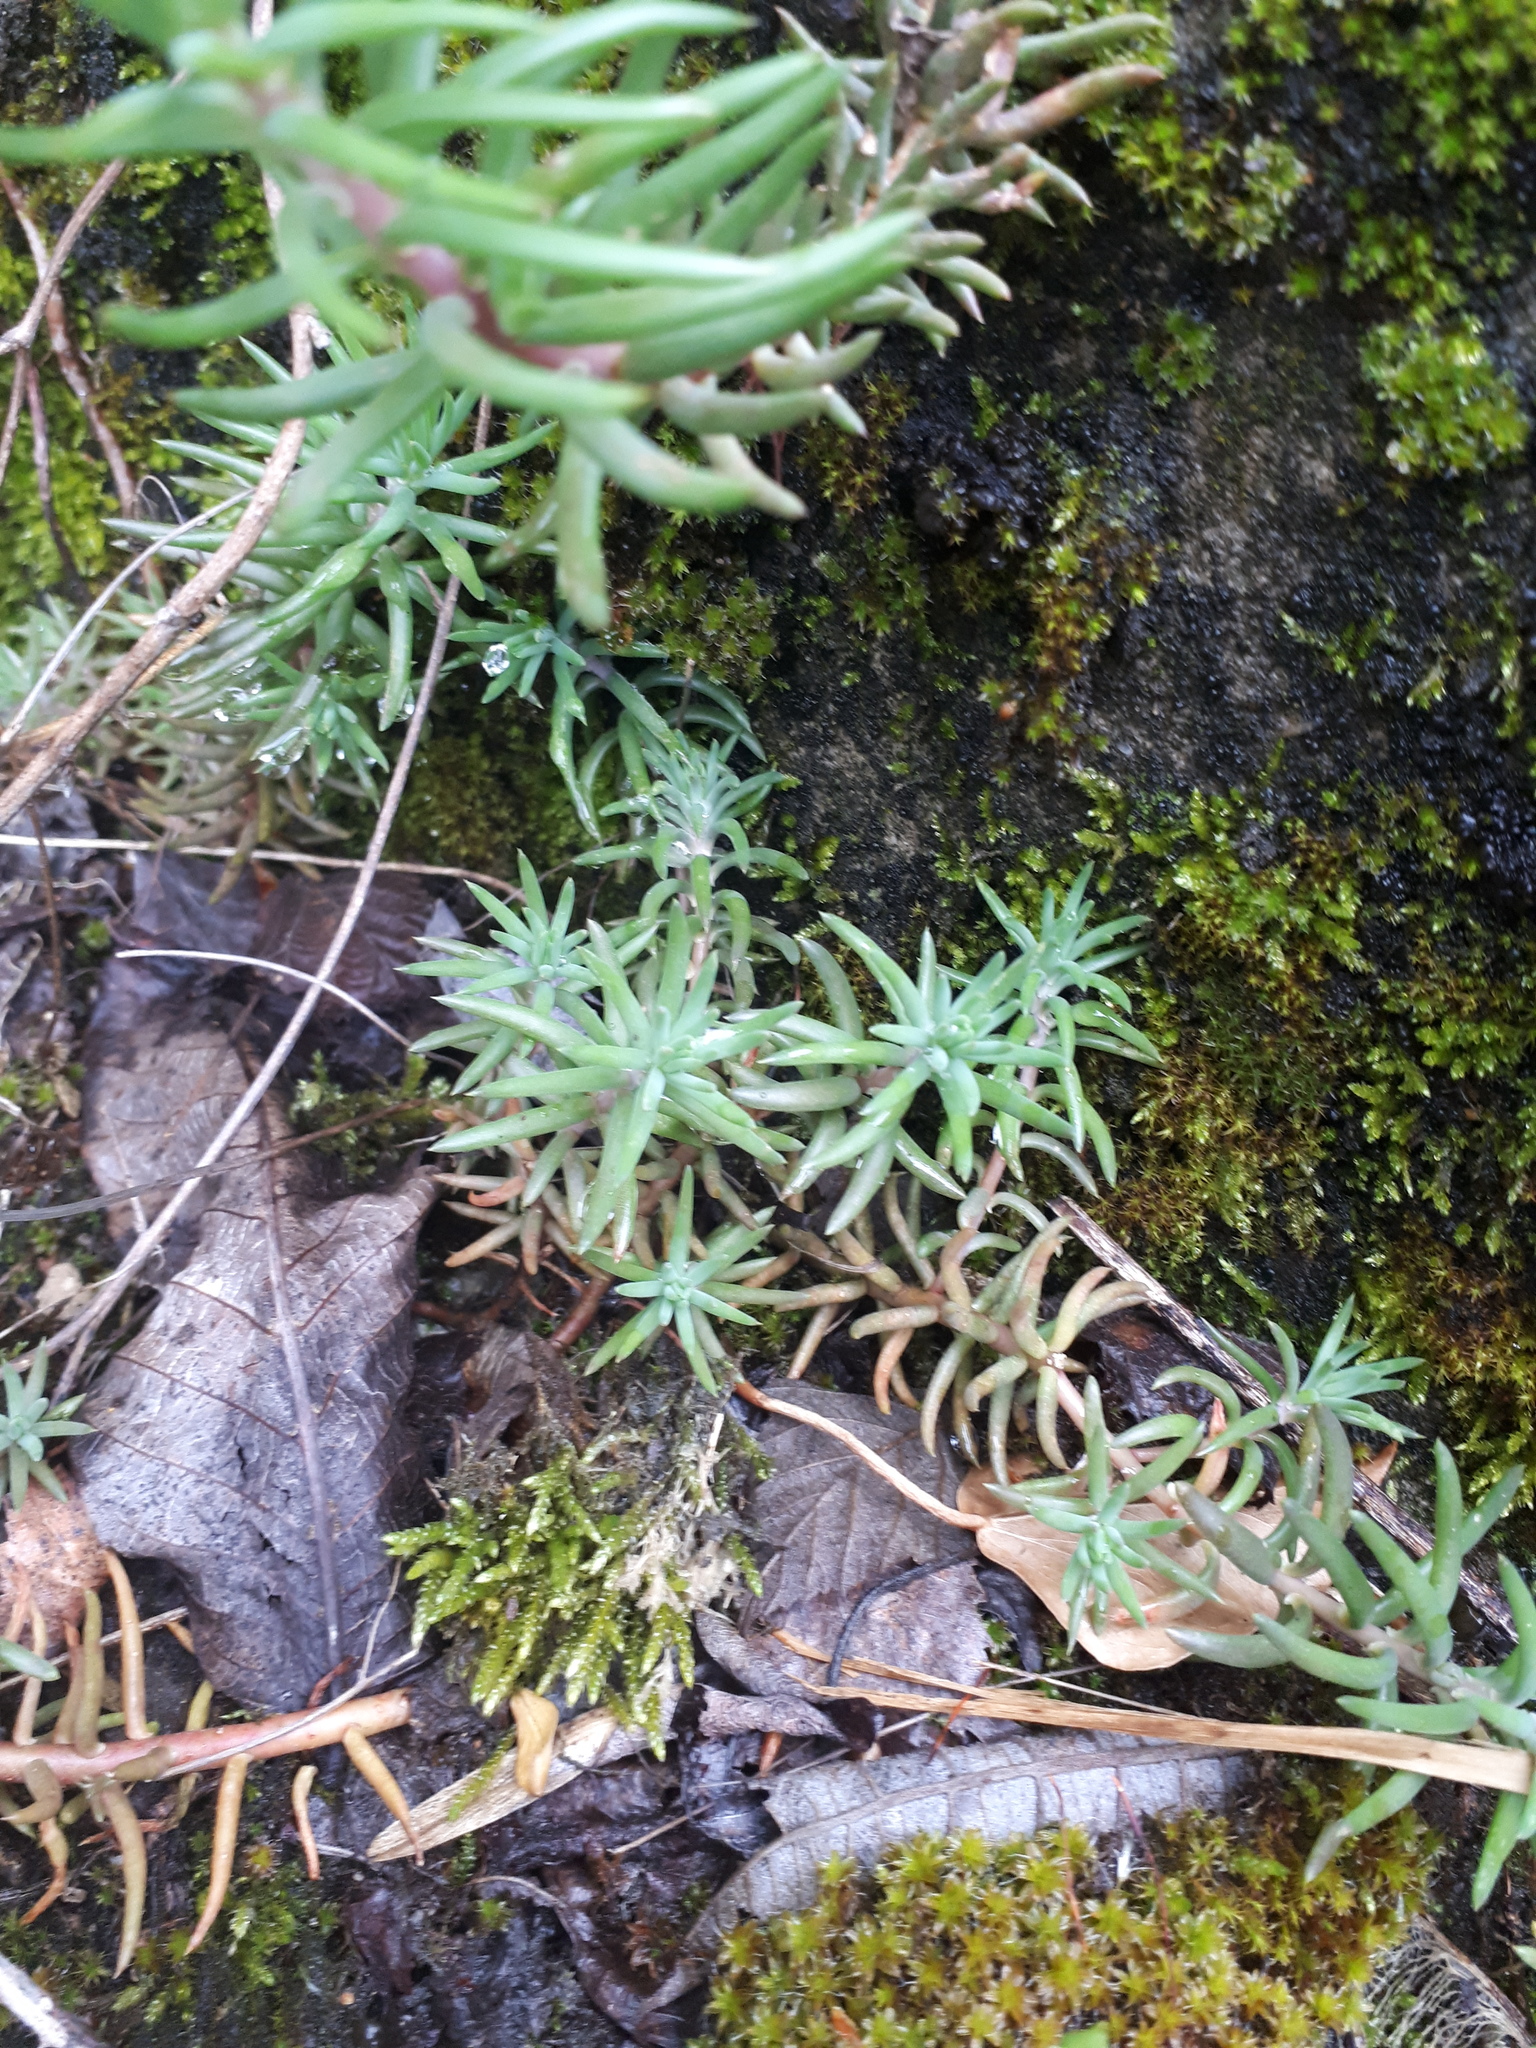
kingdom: Plantae
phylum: Tracheophyta
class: Magnoliopsida
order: Saxifragales
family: Crassulaceae
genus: Petrosedum
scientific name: Petrosedum rupestre
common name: Jenny's stonecrop
